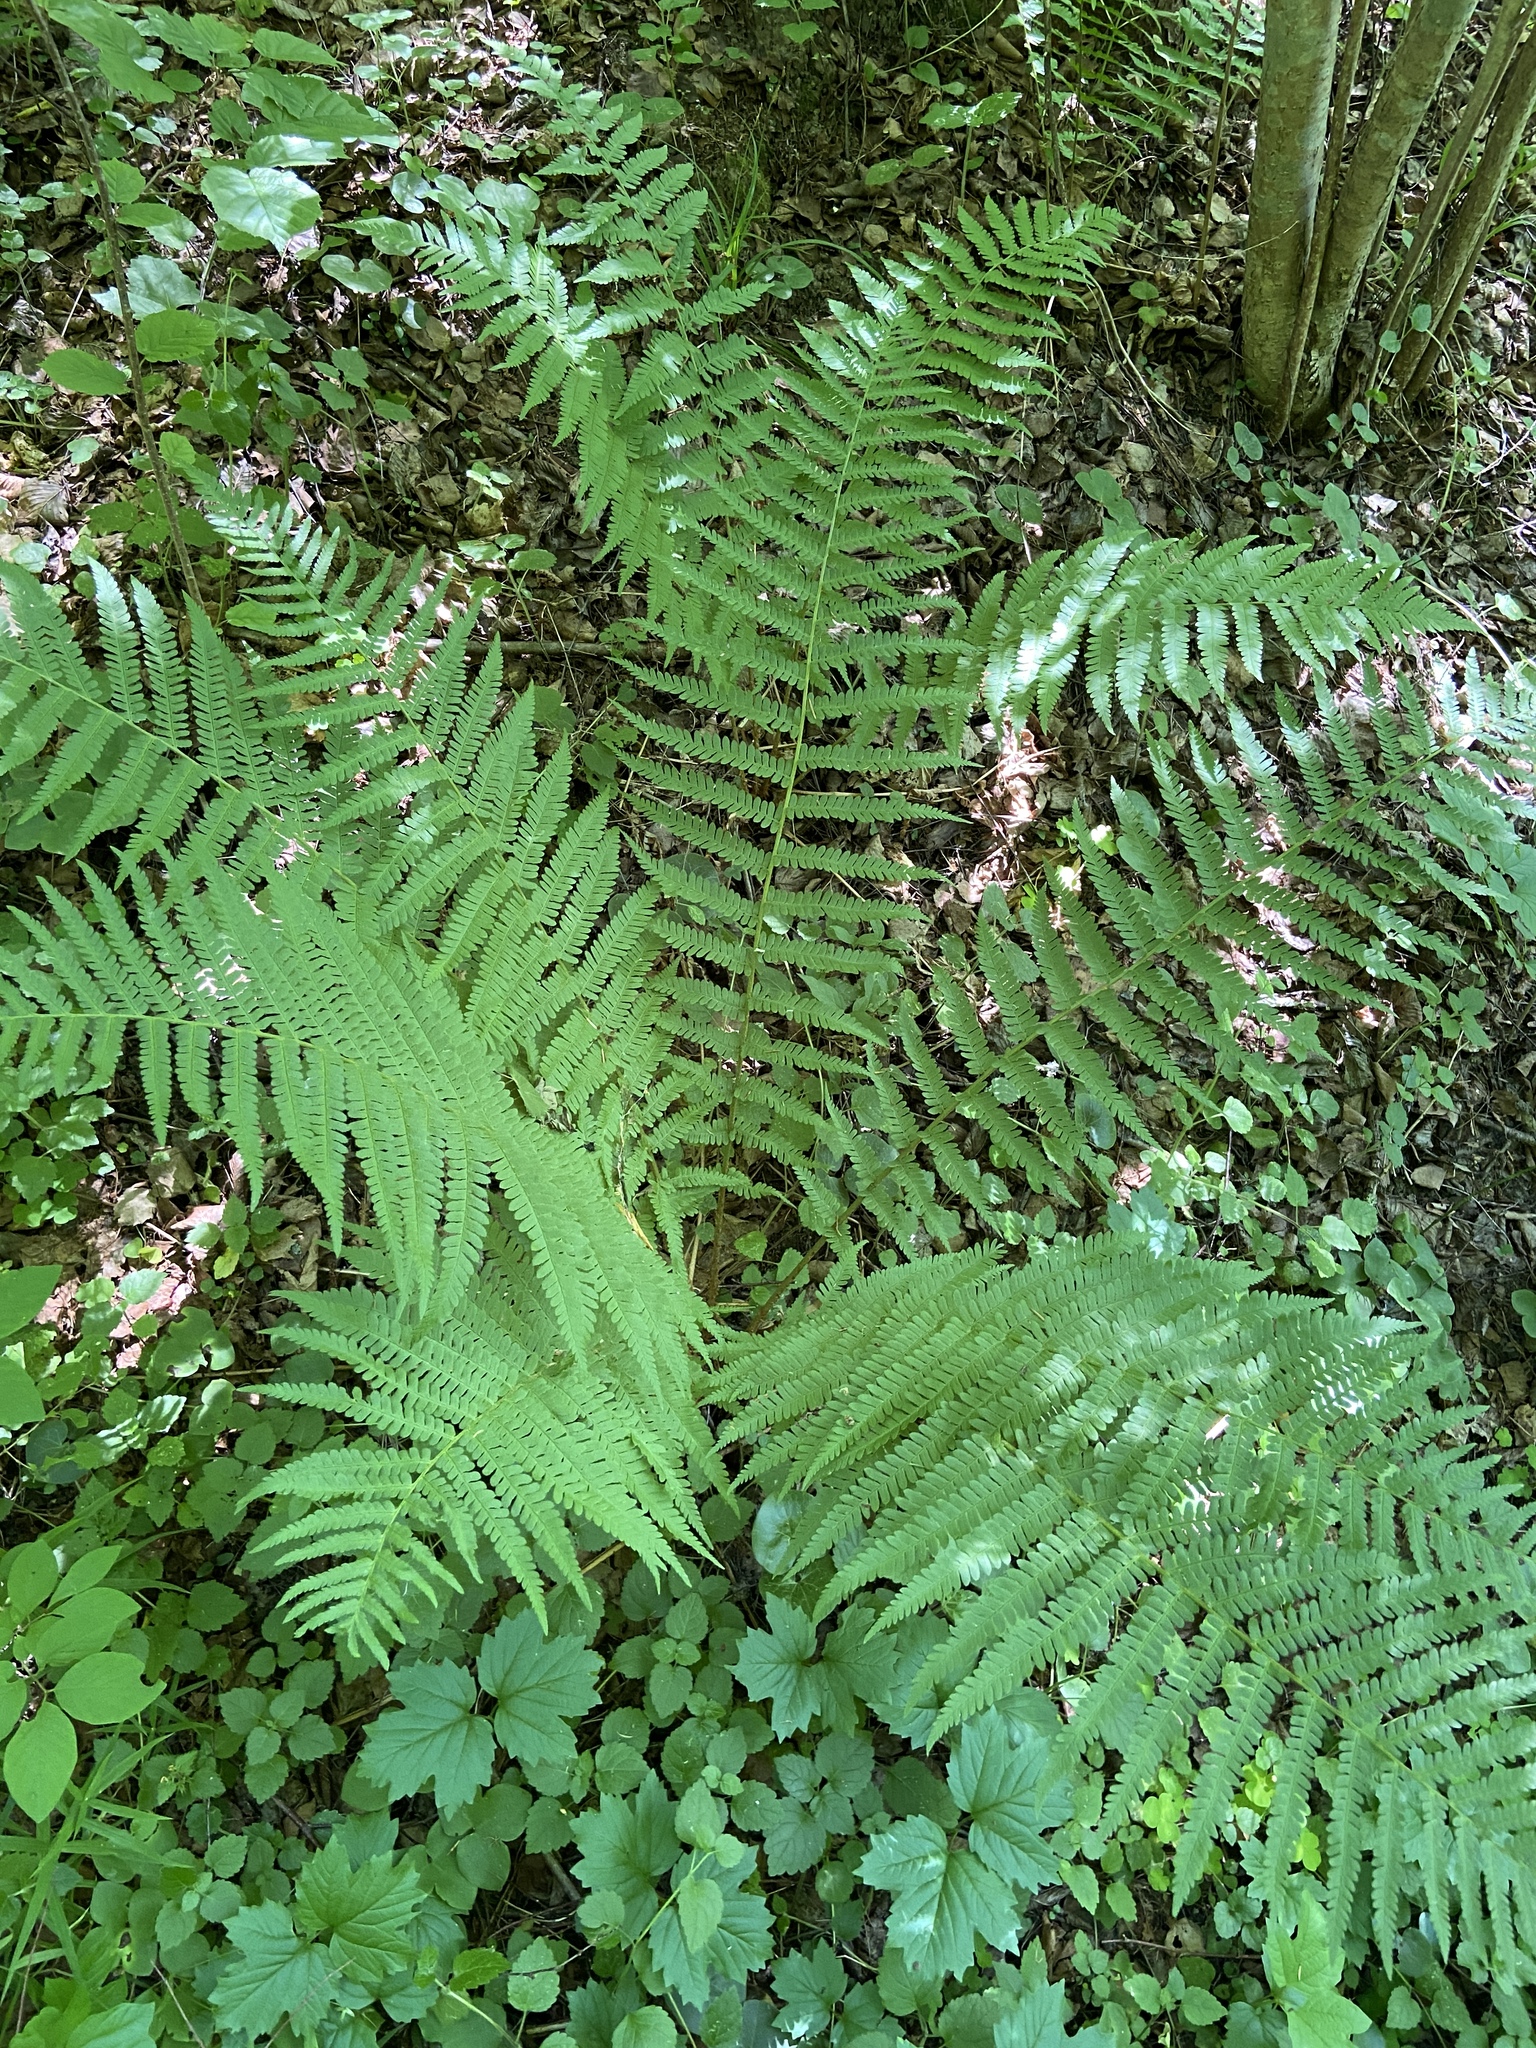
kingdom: Plantae
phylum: Tracheophyta
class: Polypodiopsida
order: Polypodiales
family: Dryopteridaceae
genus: Dryopteris
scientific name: Dryopteris filix-mas
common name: Male fern
